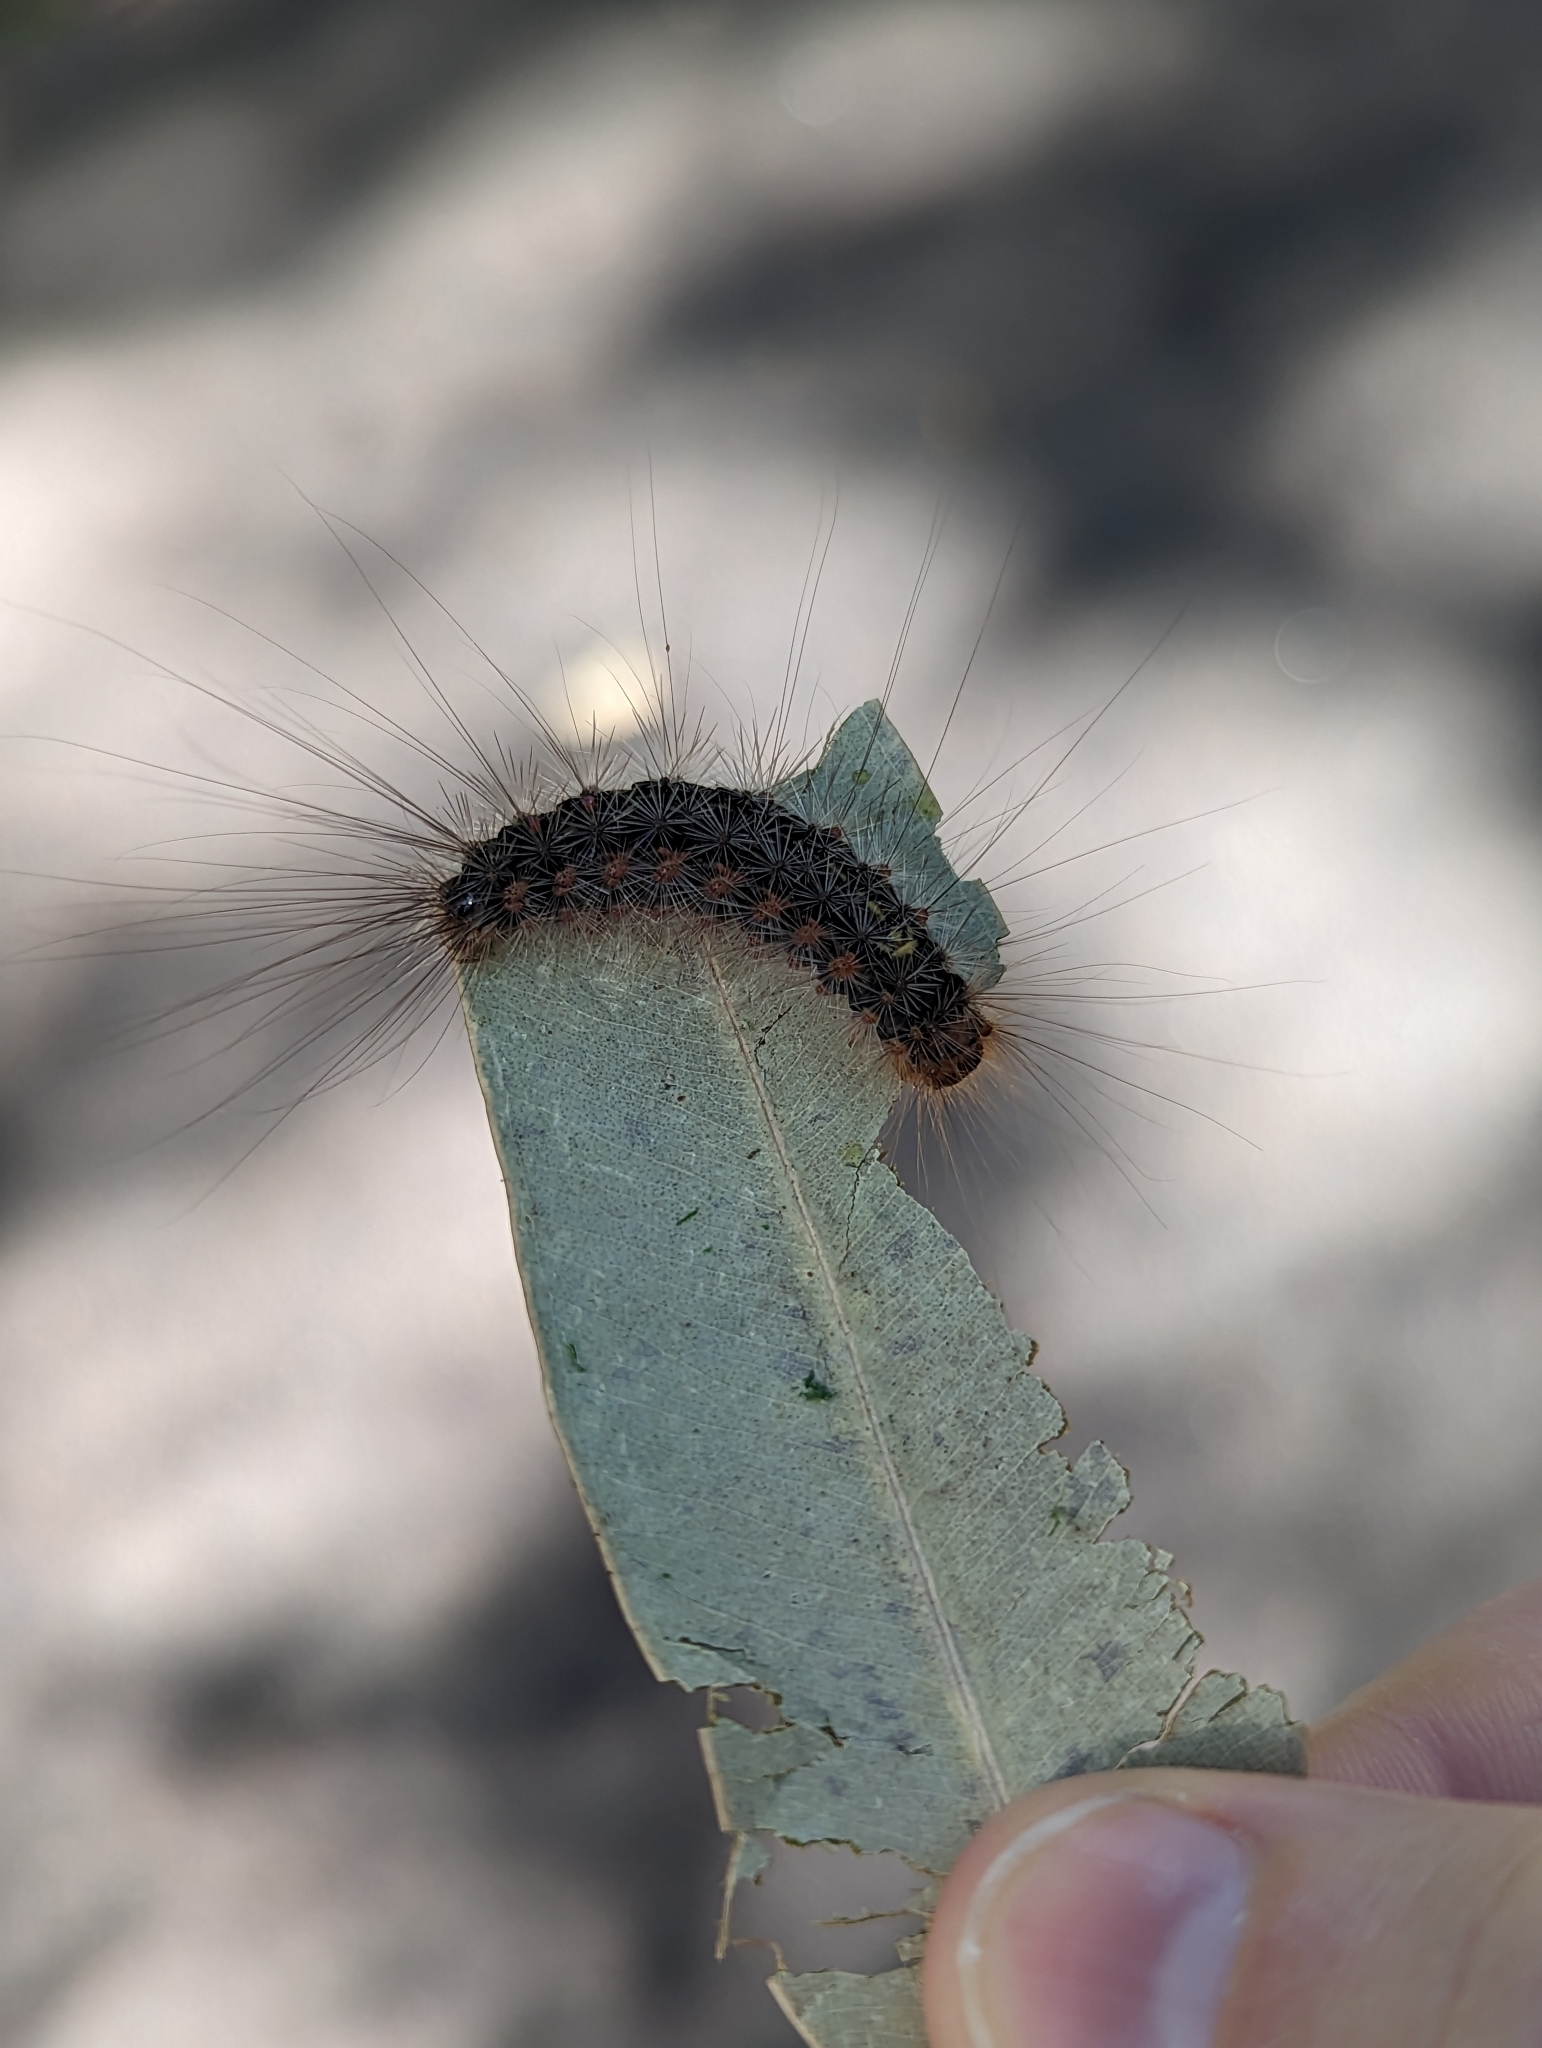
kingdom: Animalia
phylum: Arthropoda
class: Insecta
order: Lepidoptera
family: Erebidae
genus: Leptocneria
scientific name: Leptocneria reducta
